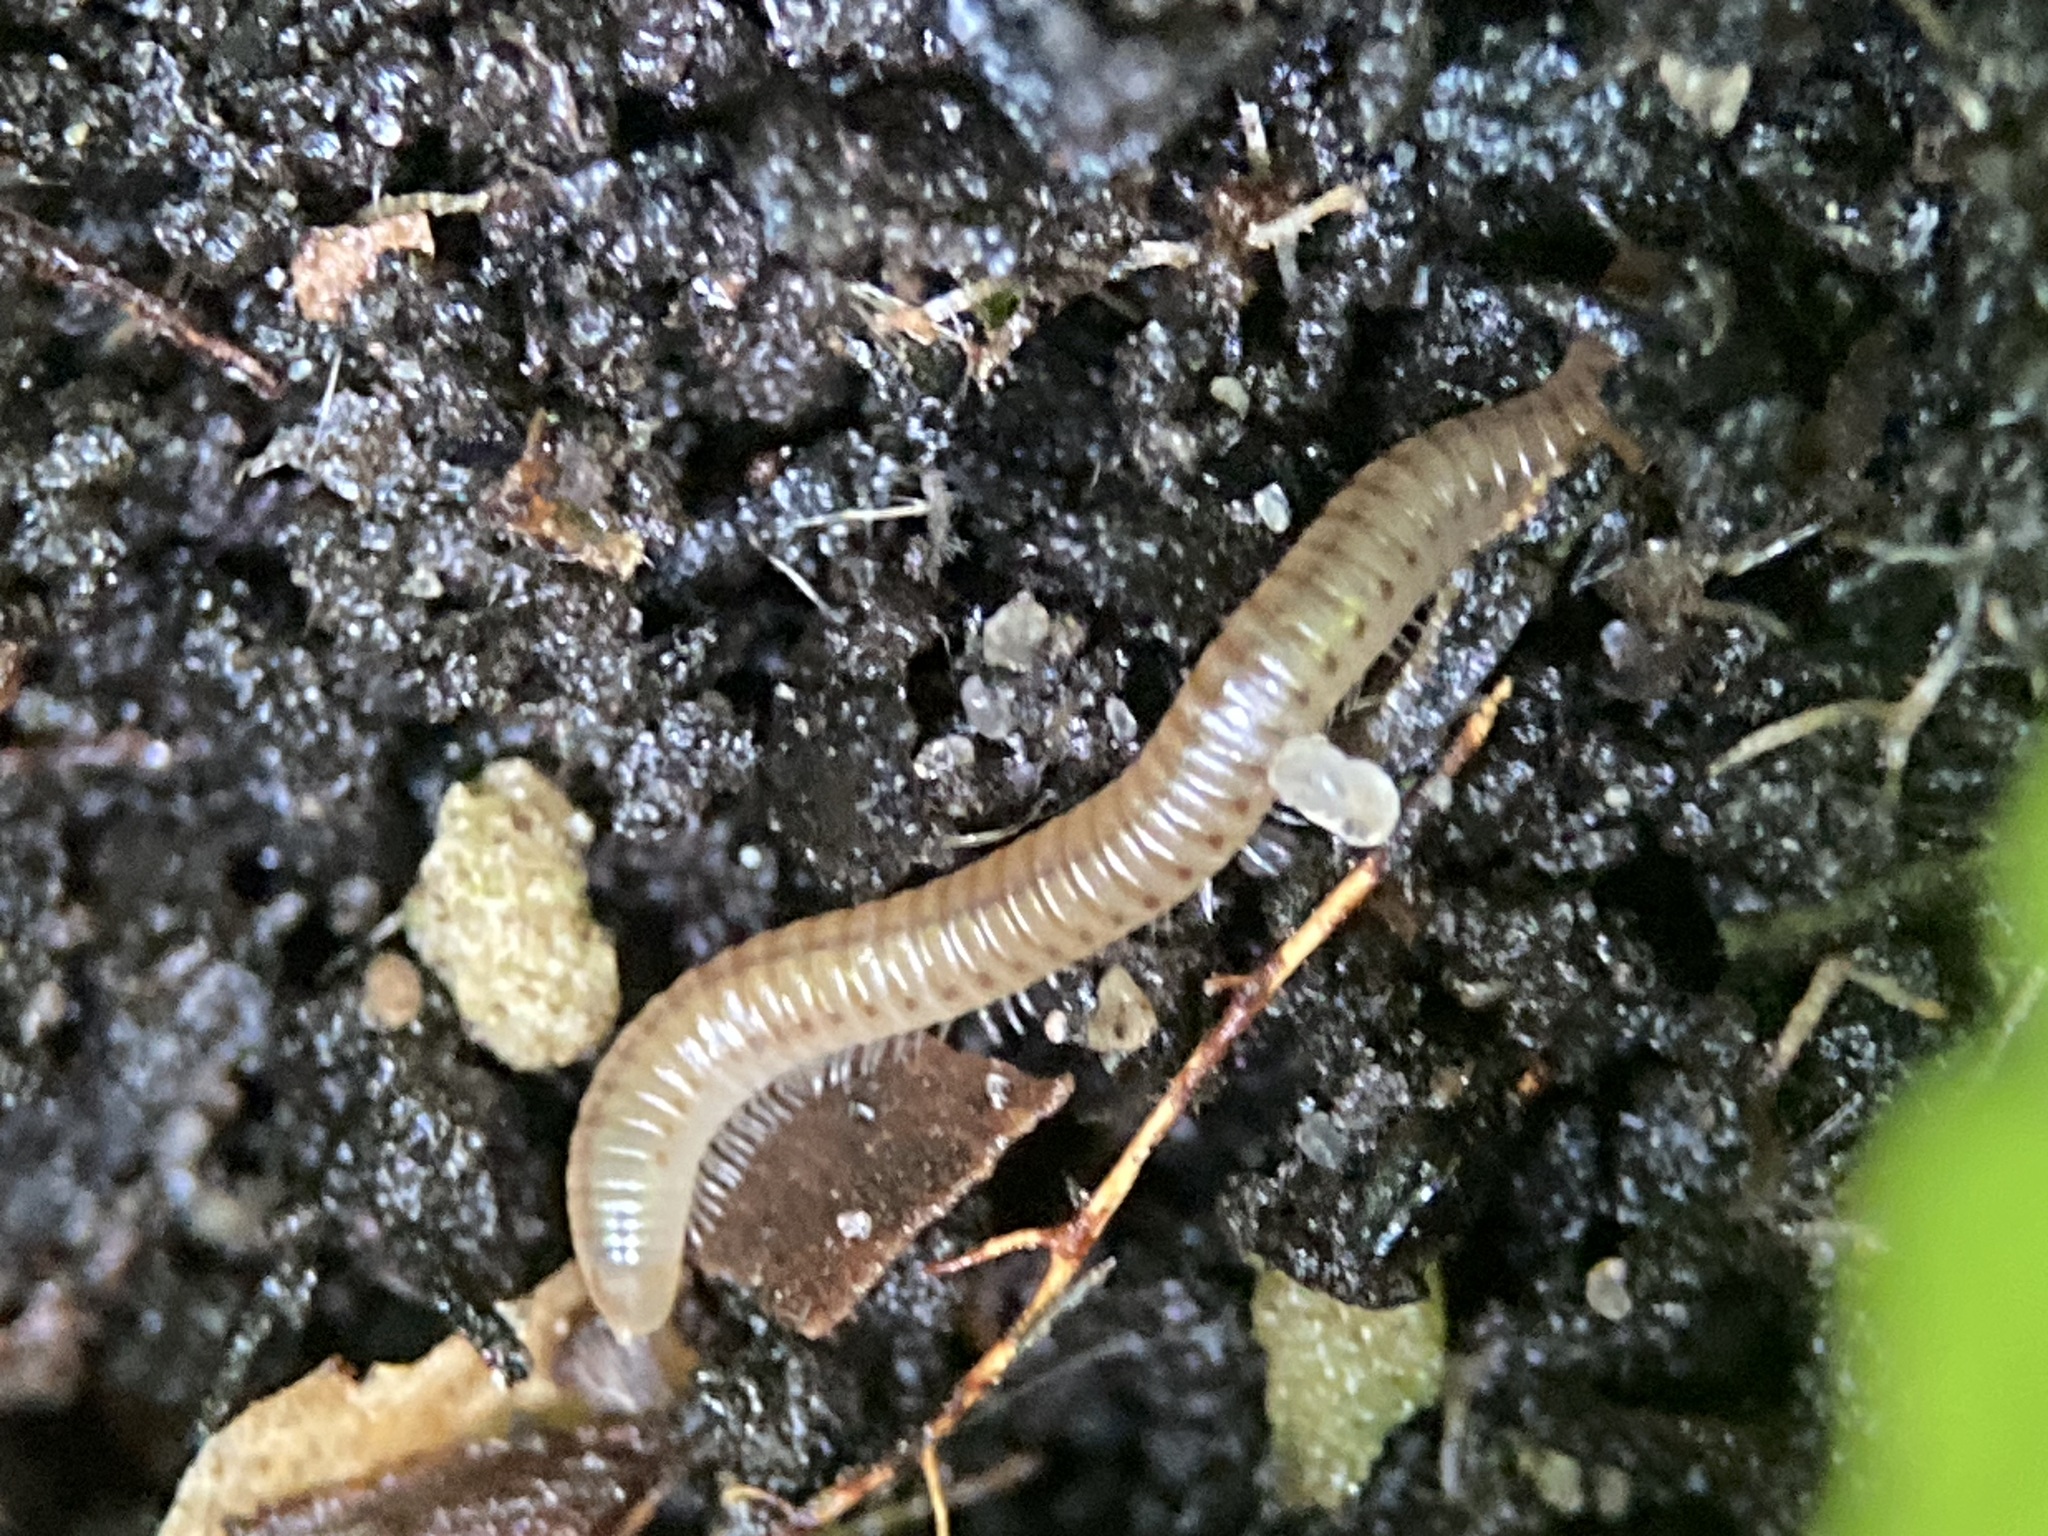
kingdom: Animalia
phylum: Arthropoda
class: Diplopoda
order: Julida
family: Julidae
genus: Cylindroiulus
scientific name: Cylindroiulus punctatus
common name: Blunt-tailed millipede
